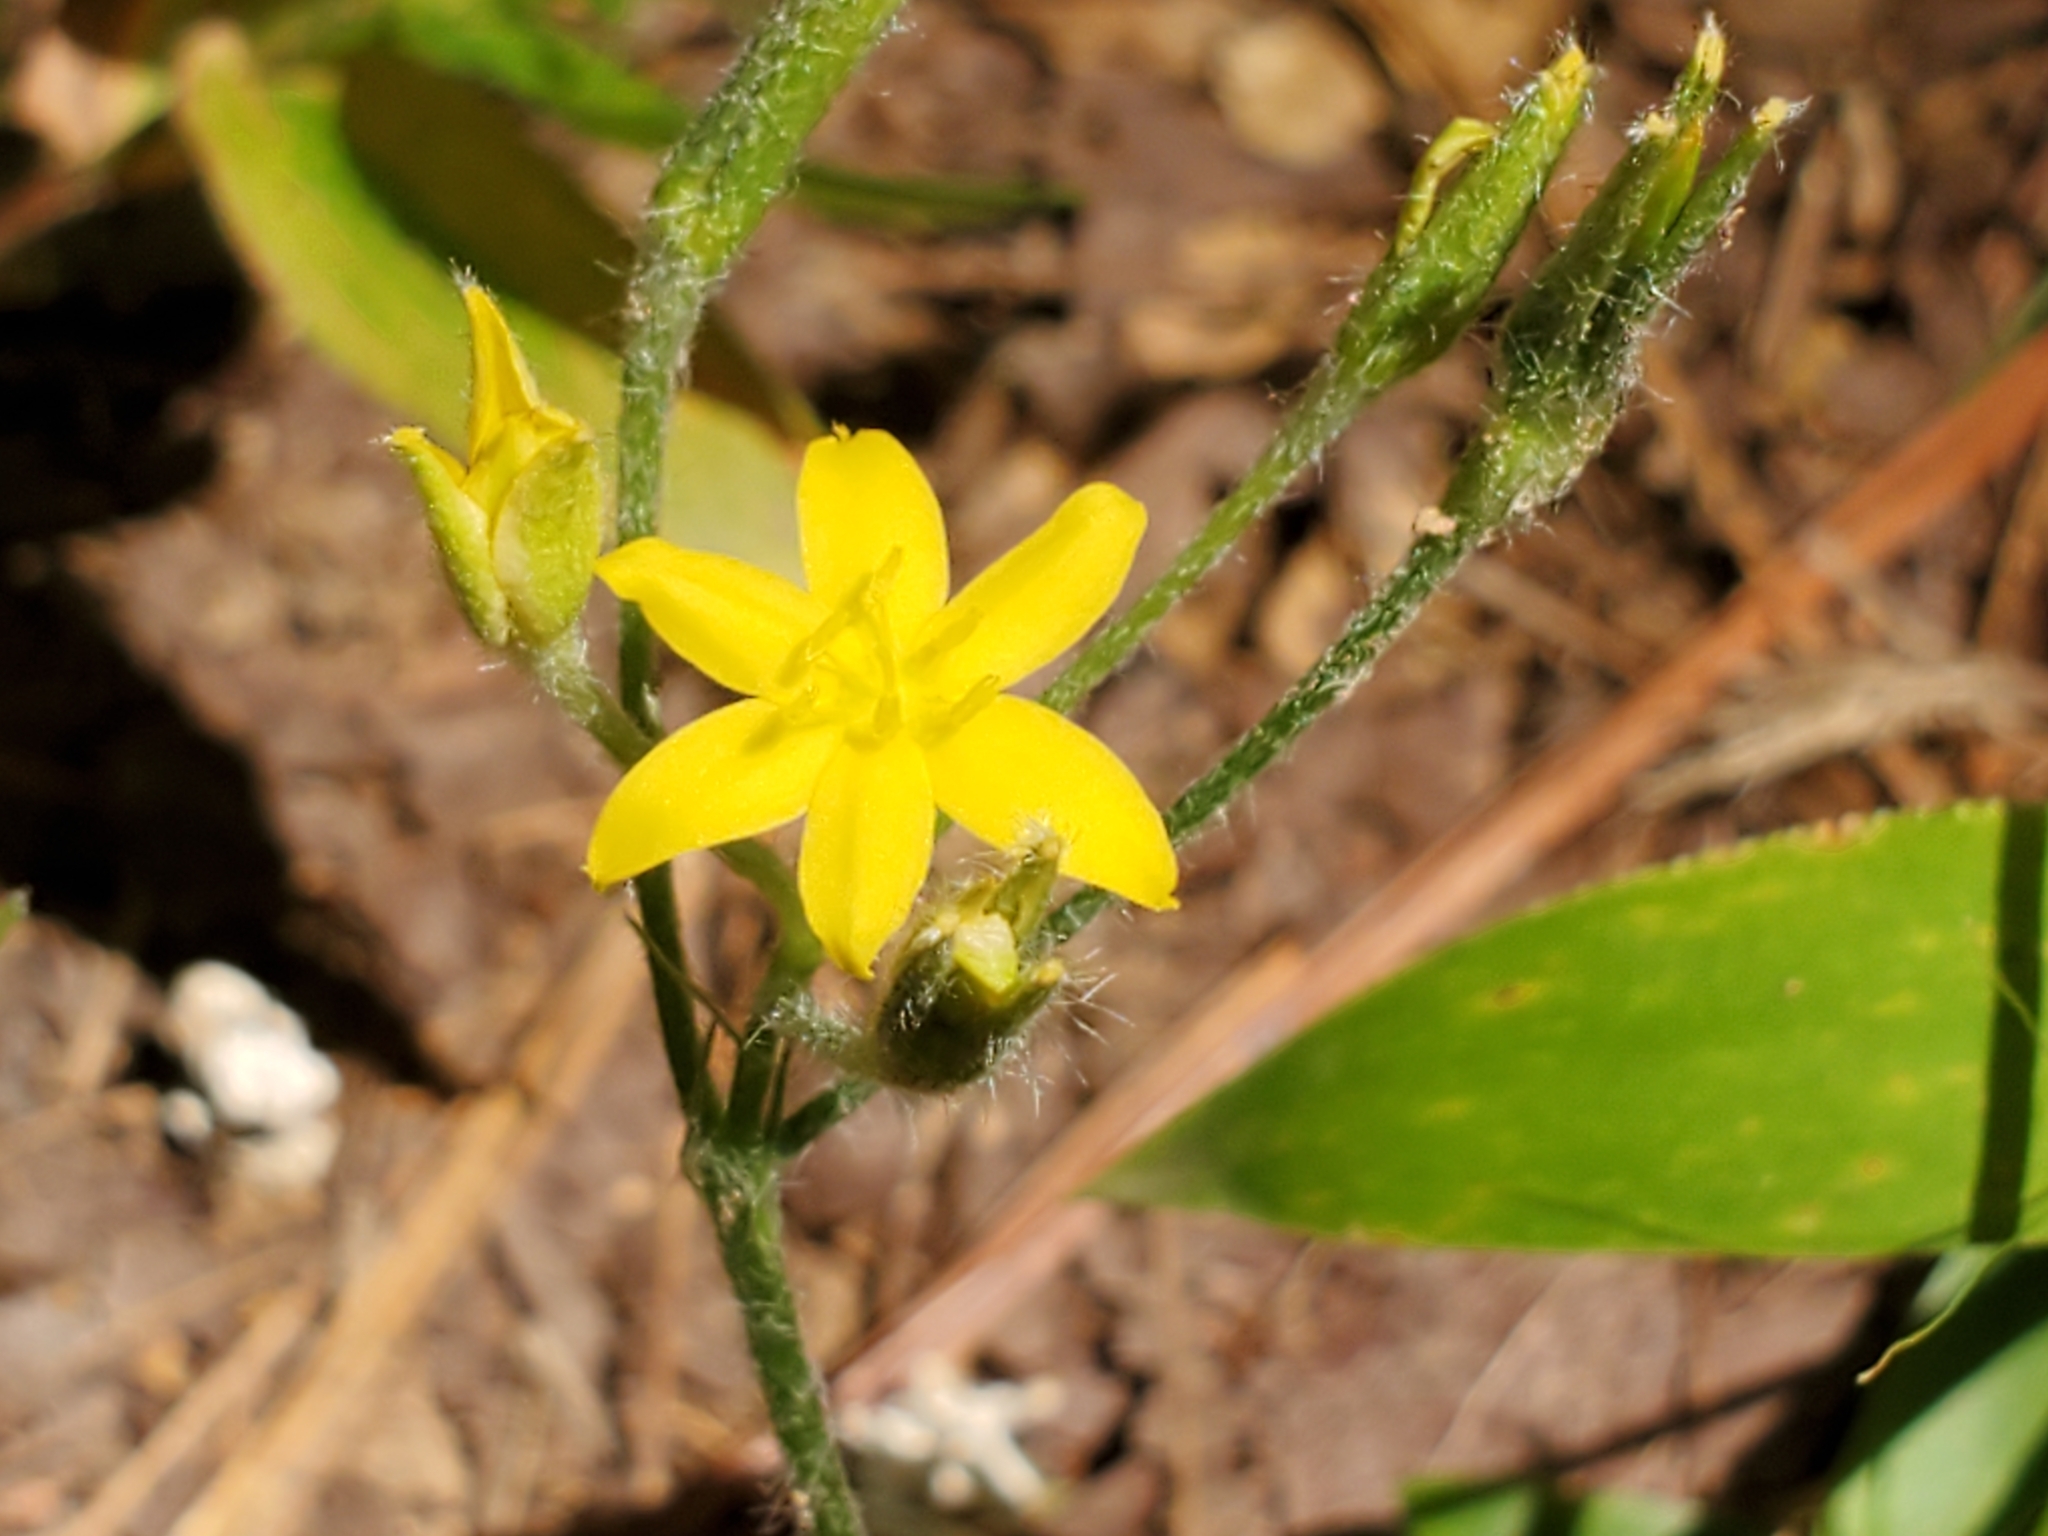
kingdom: Plantae
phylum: Tracheophyta
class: Liliopsida
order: Asparagales
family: Hypoxidaceae
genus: Hypoxis
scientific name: Hypoxis hirsuta
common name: Common goldstar
